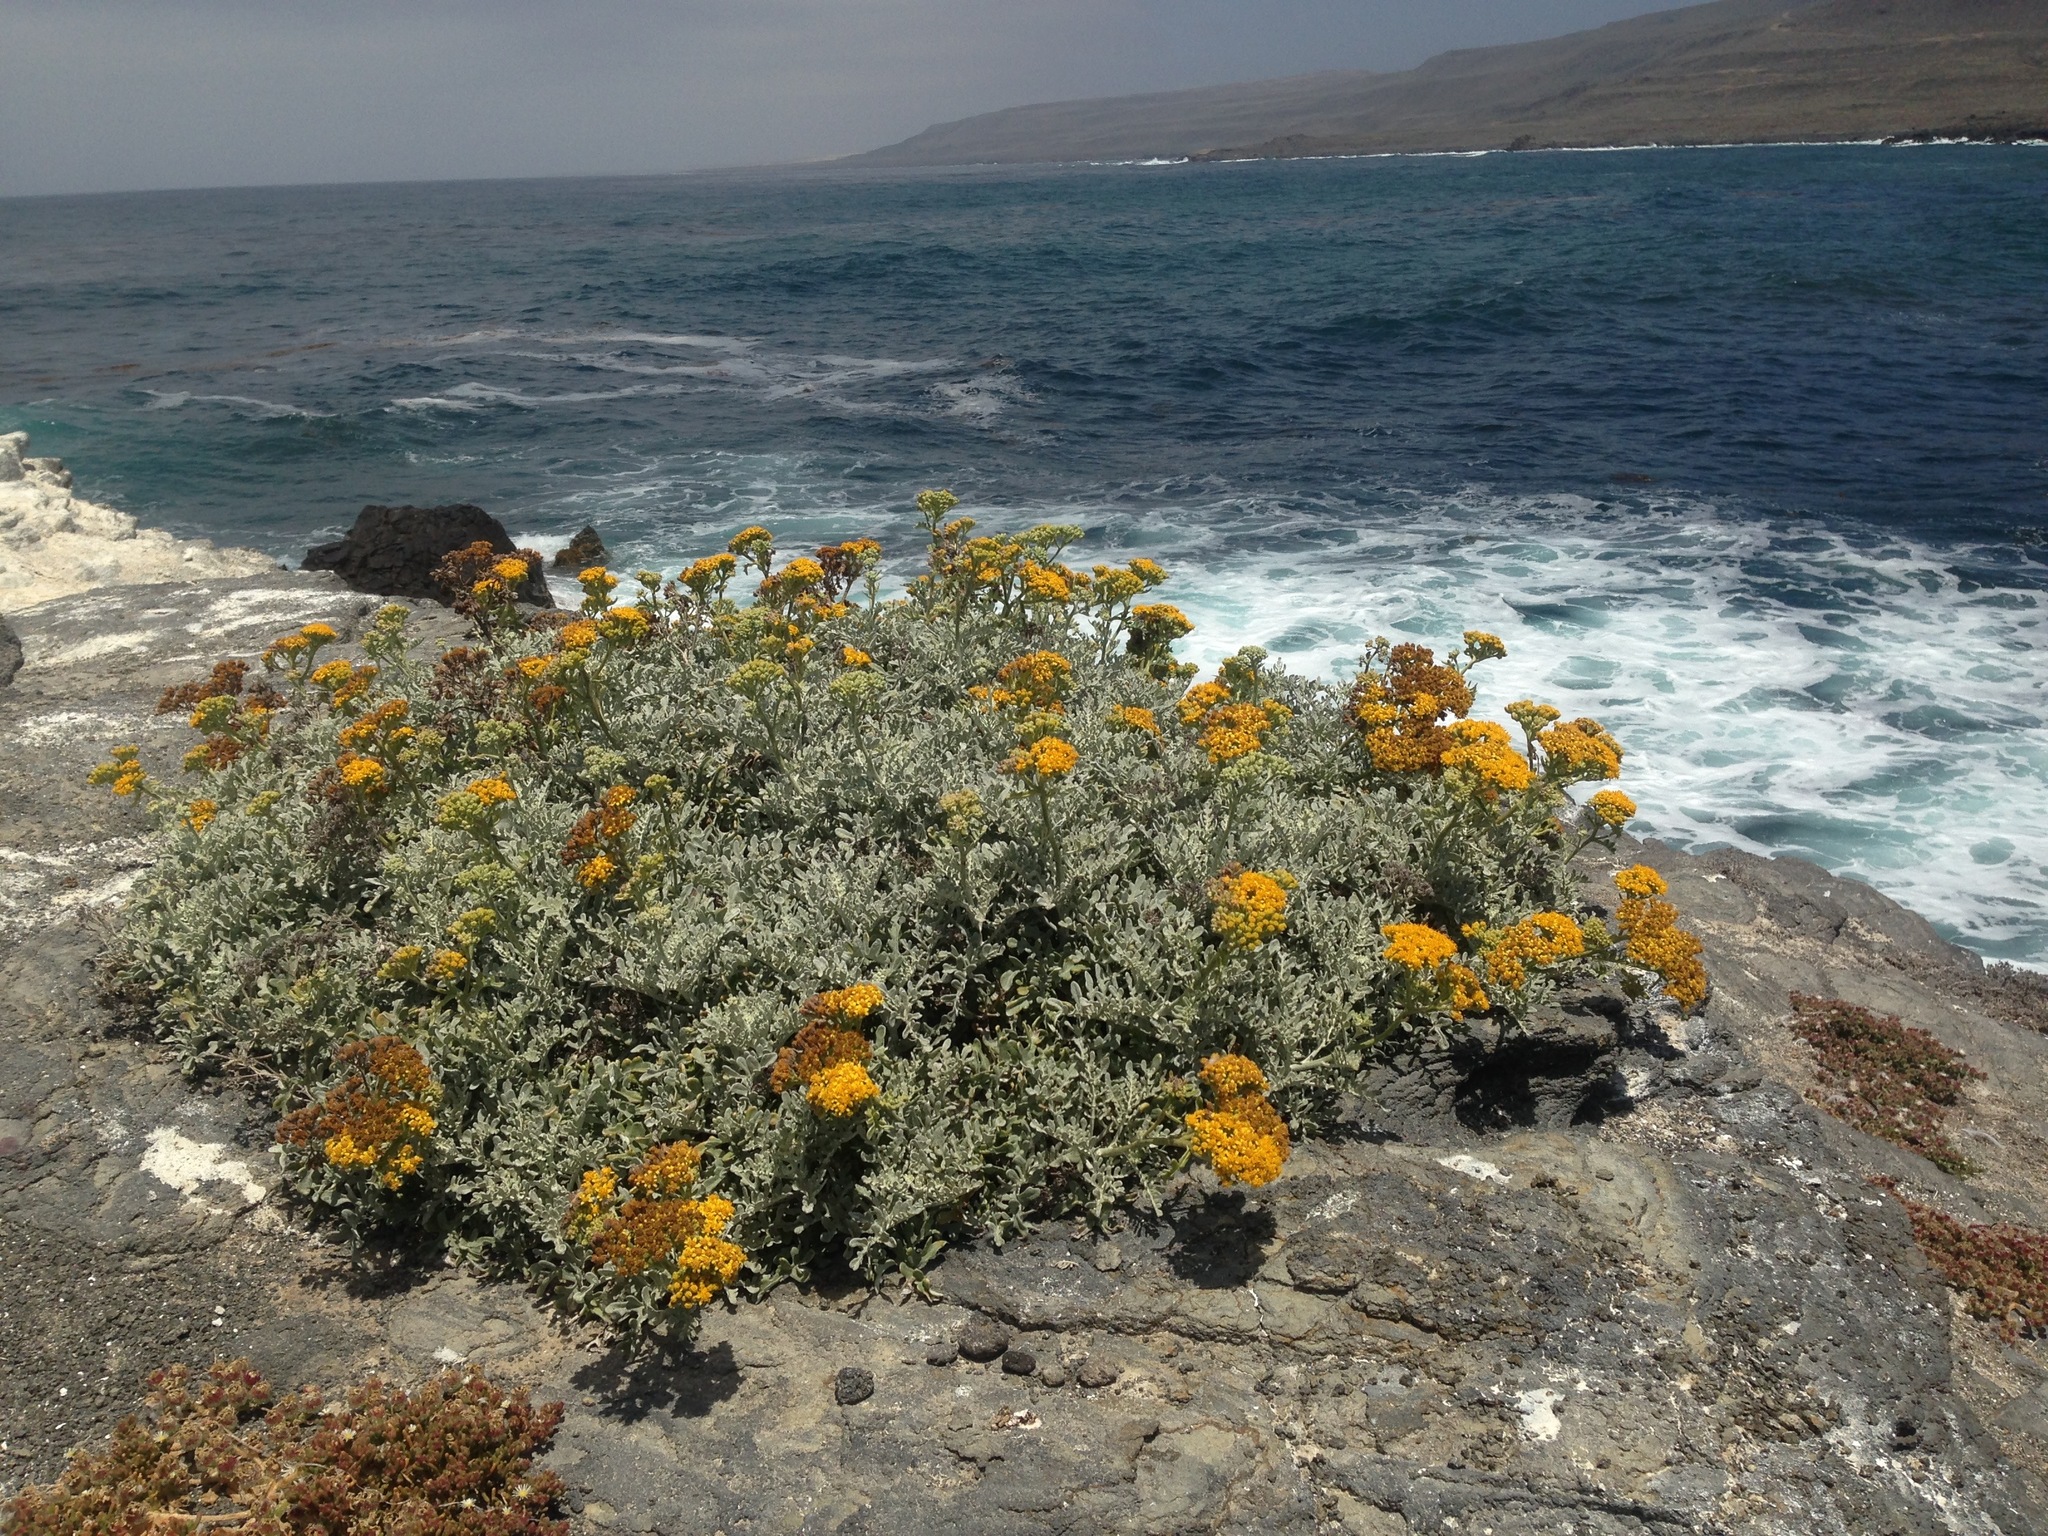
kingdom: Plantae
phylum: Tracheophyta
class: Magnoliopsida
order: Asterales
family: Asteraceae
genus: Constancea
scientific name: Constancea nevinii
